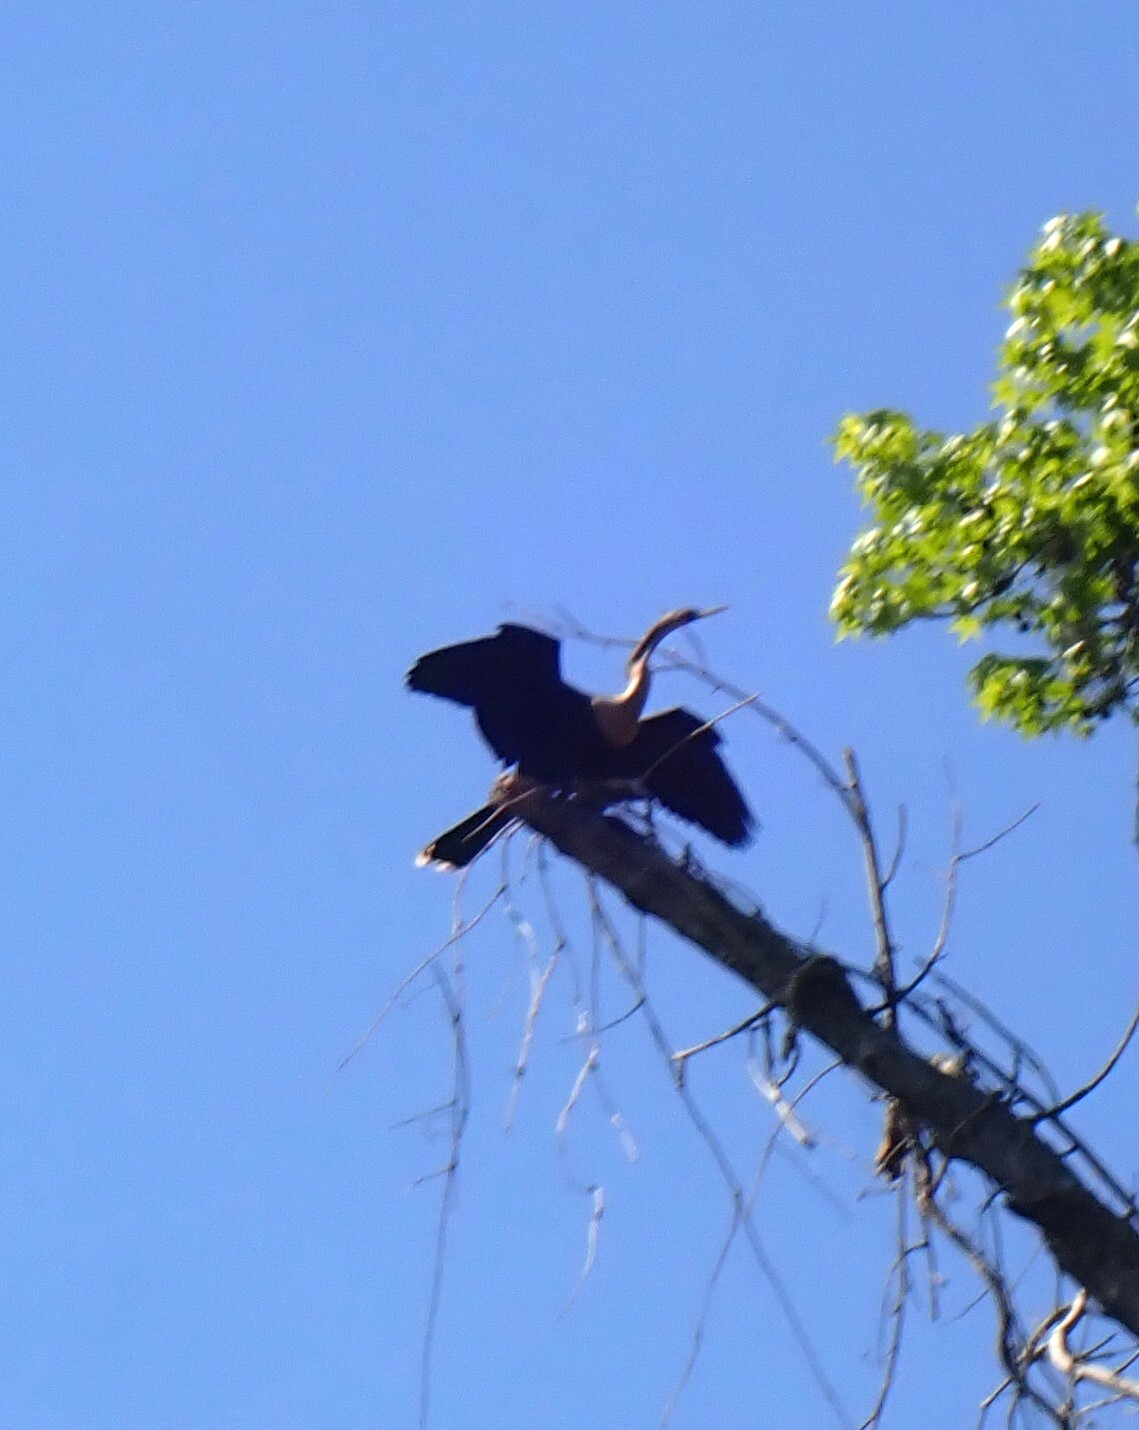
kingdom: Animalia
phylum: Chordata
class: Aves
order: Suliformes
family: Anhingidae
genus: Anhinga
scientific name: Anhinga anhinga
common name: Anhinga
